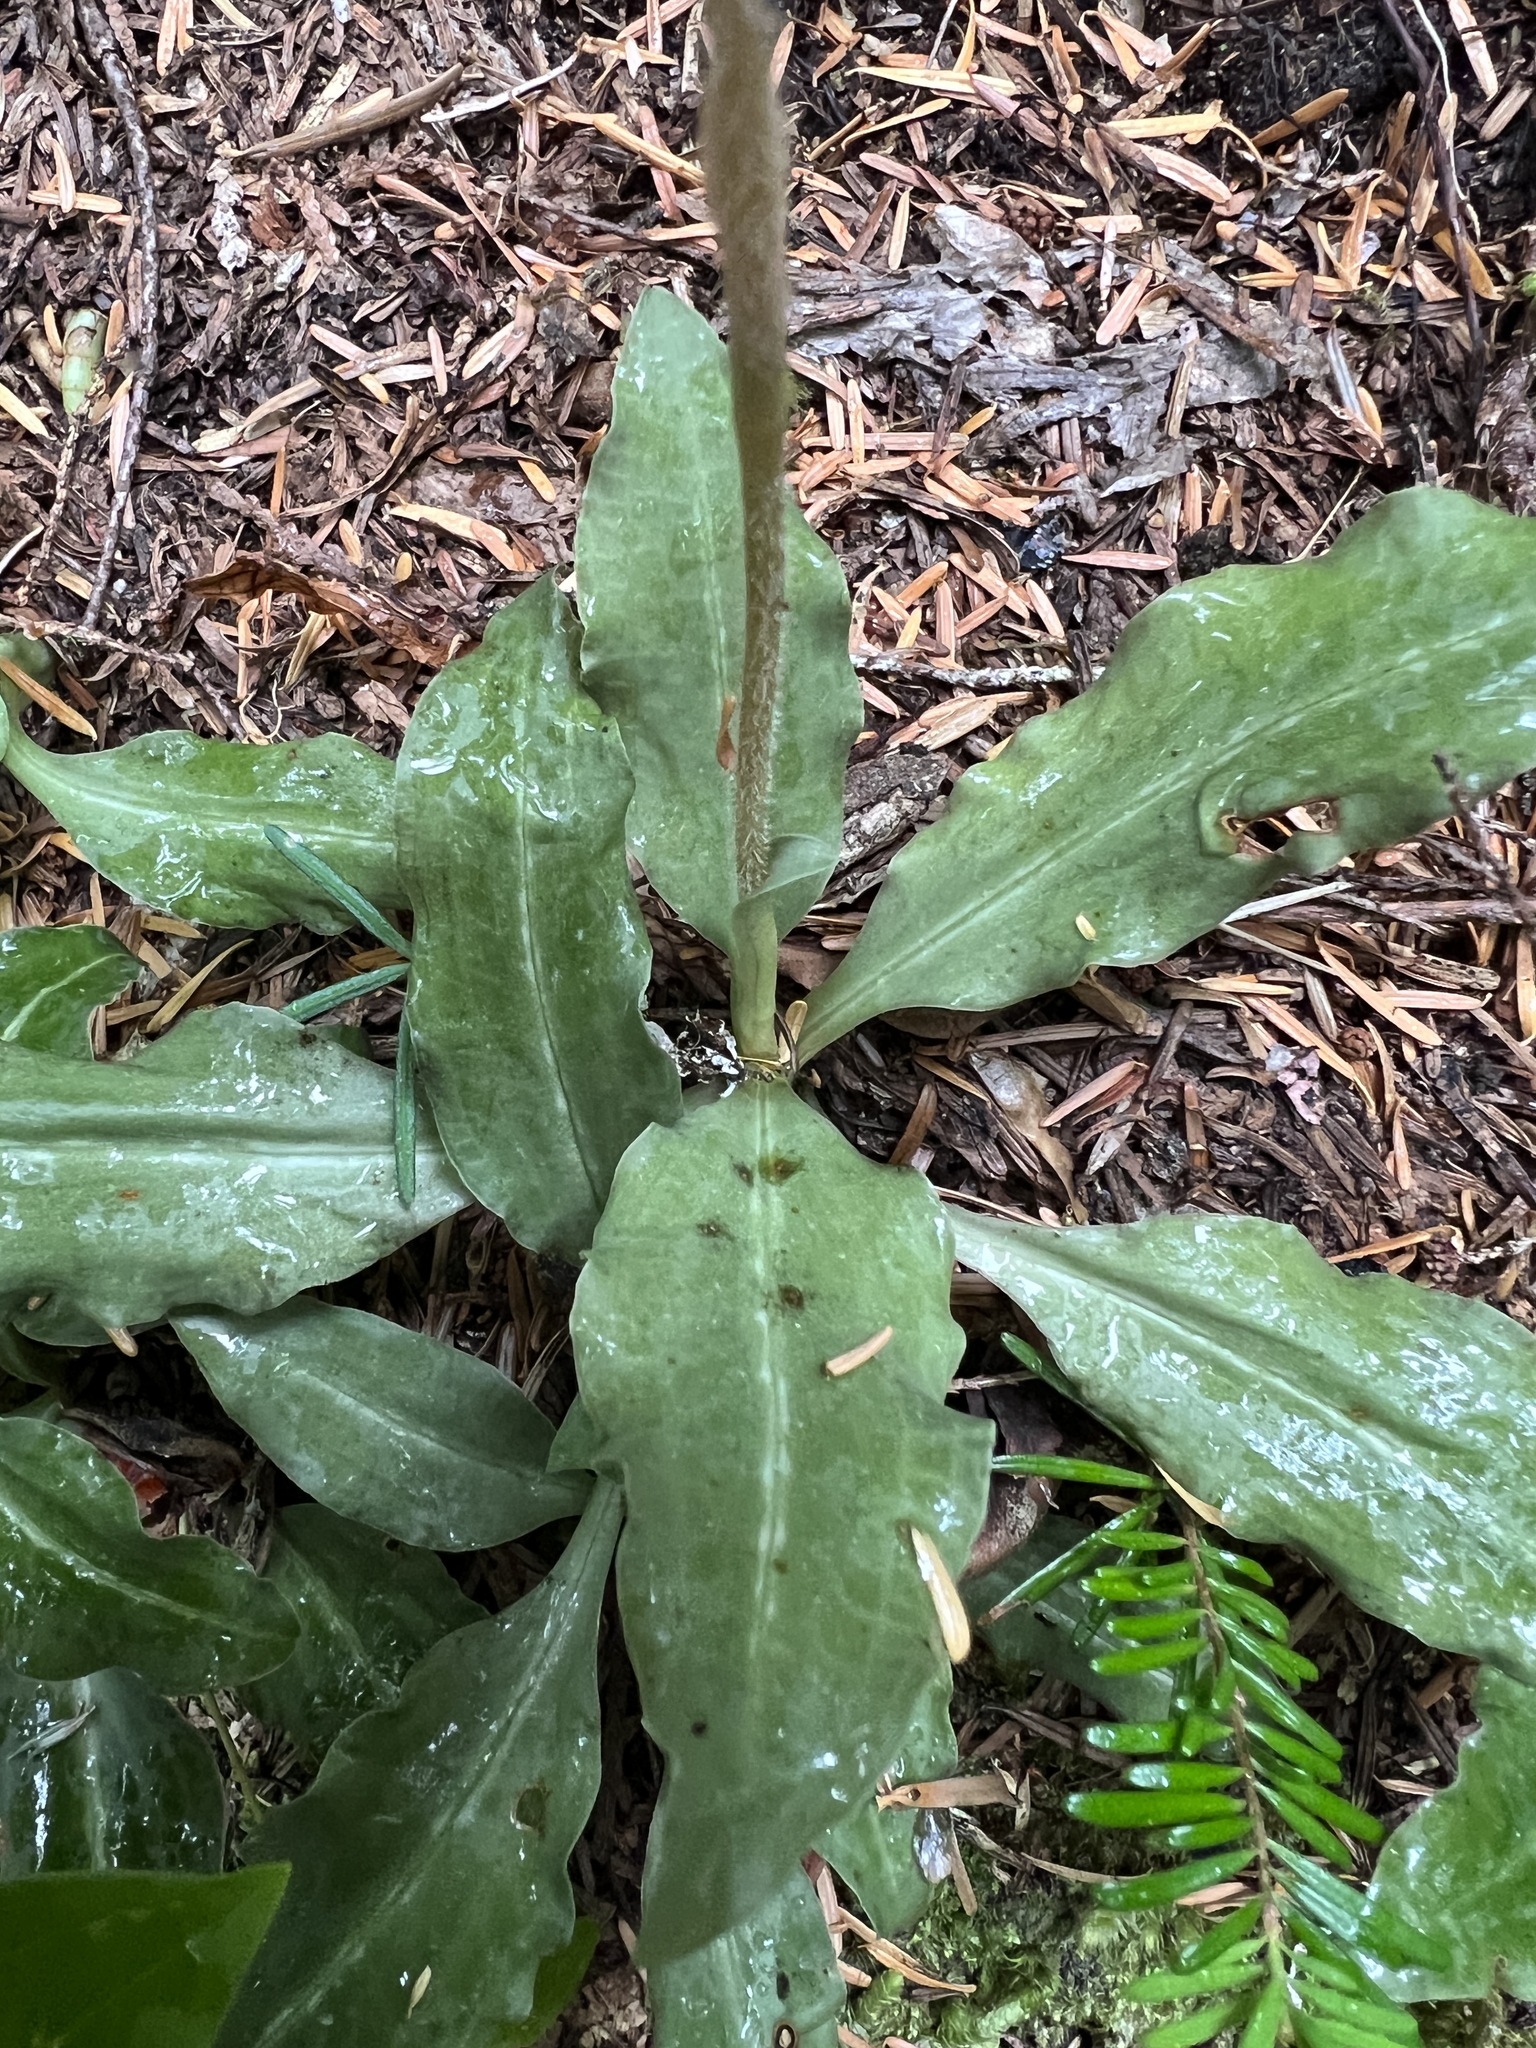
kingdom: Plantae
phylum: Tracheophyta
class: Liliopsida
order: Asparagales
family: Orchidaceae
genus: Goodyera
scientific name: Goodyera oblongifolia
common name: Giant rattlesnake-plantain
